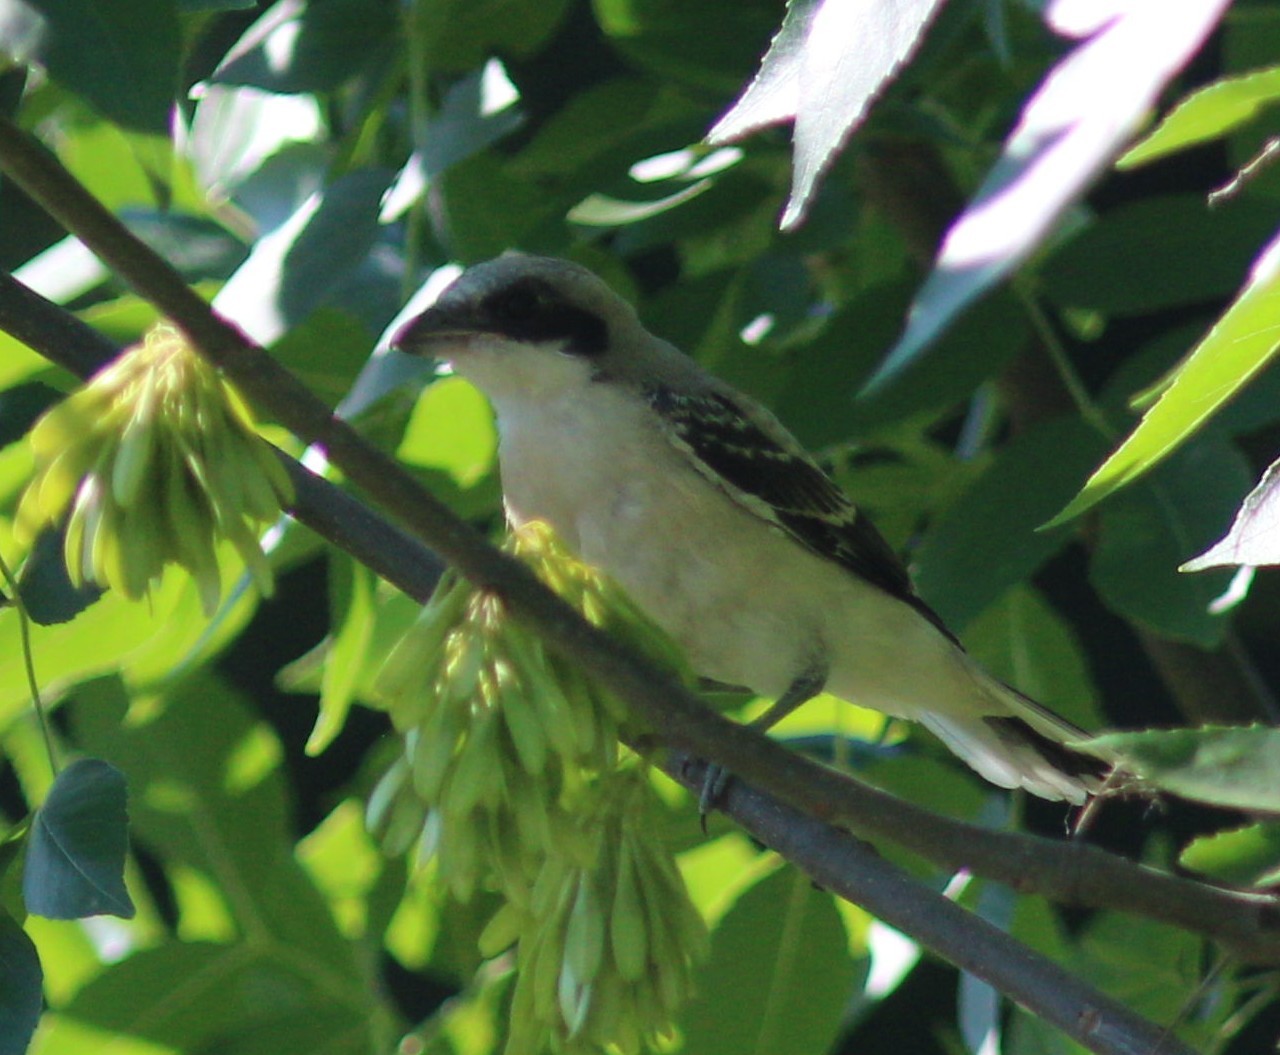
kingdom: Animalia
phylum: Chordata
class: Aves
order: Passeriformes
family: Laniidae
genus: Lanius
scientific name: Lanius minor
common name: Lesser grey shrike
